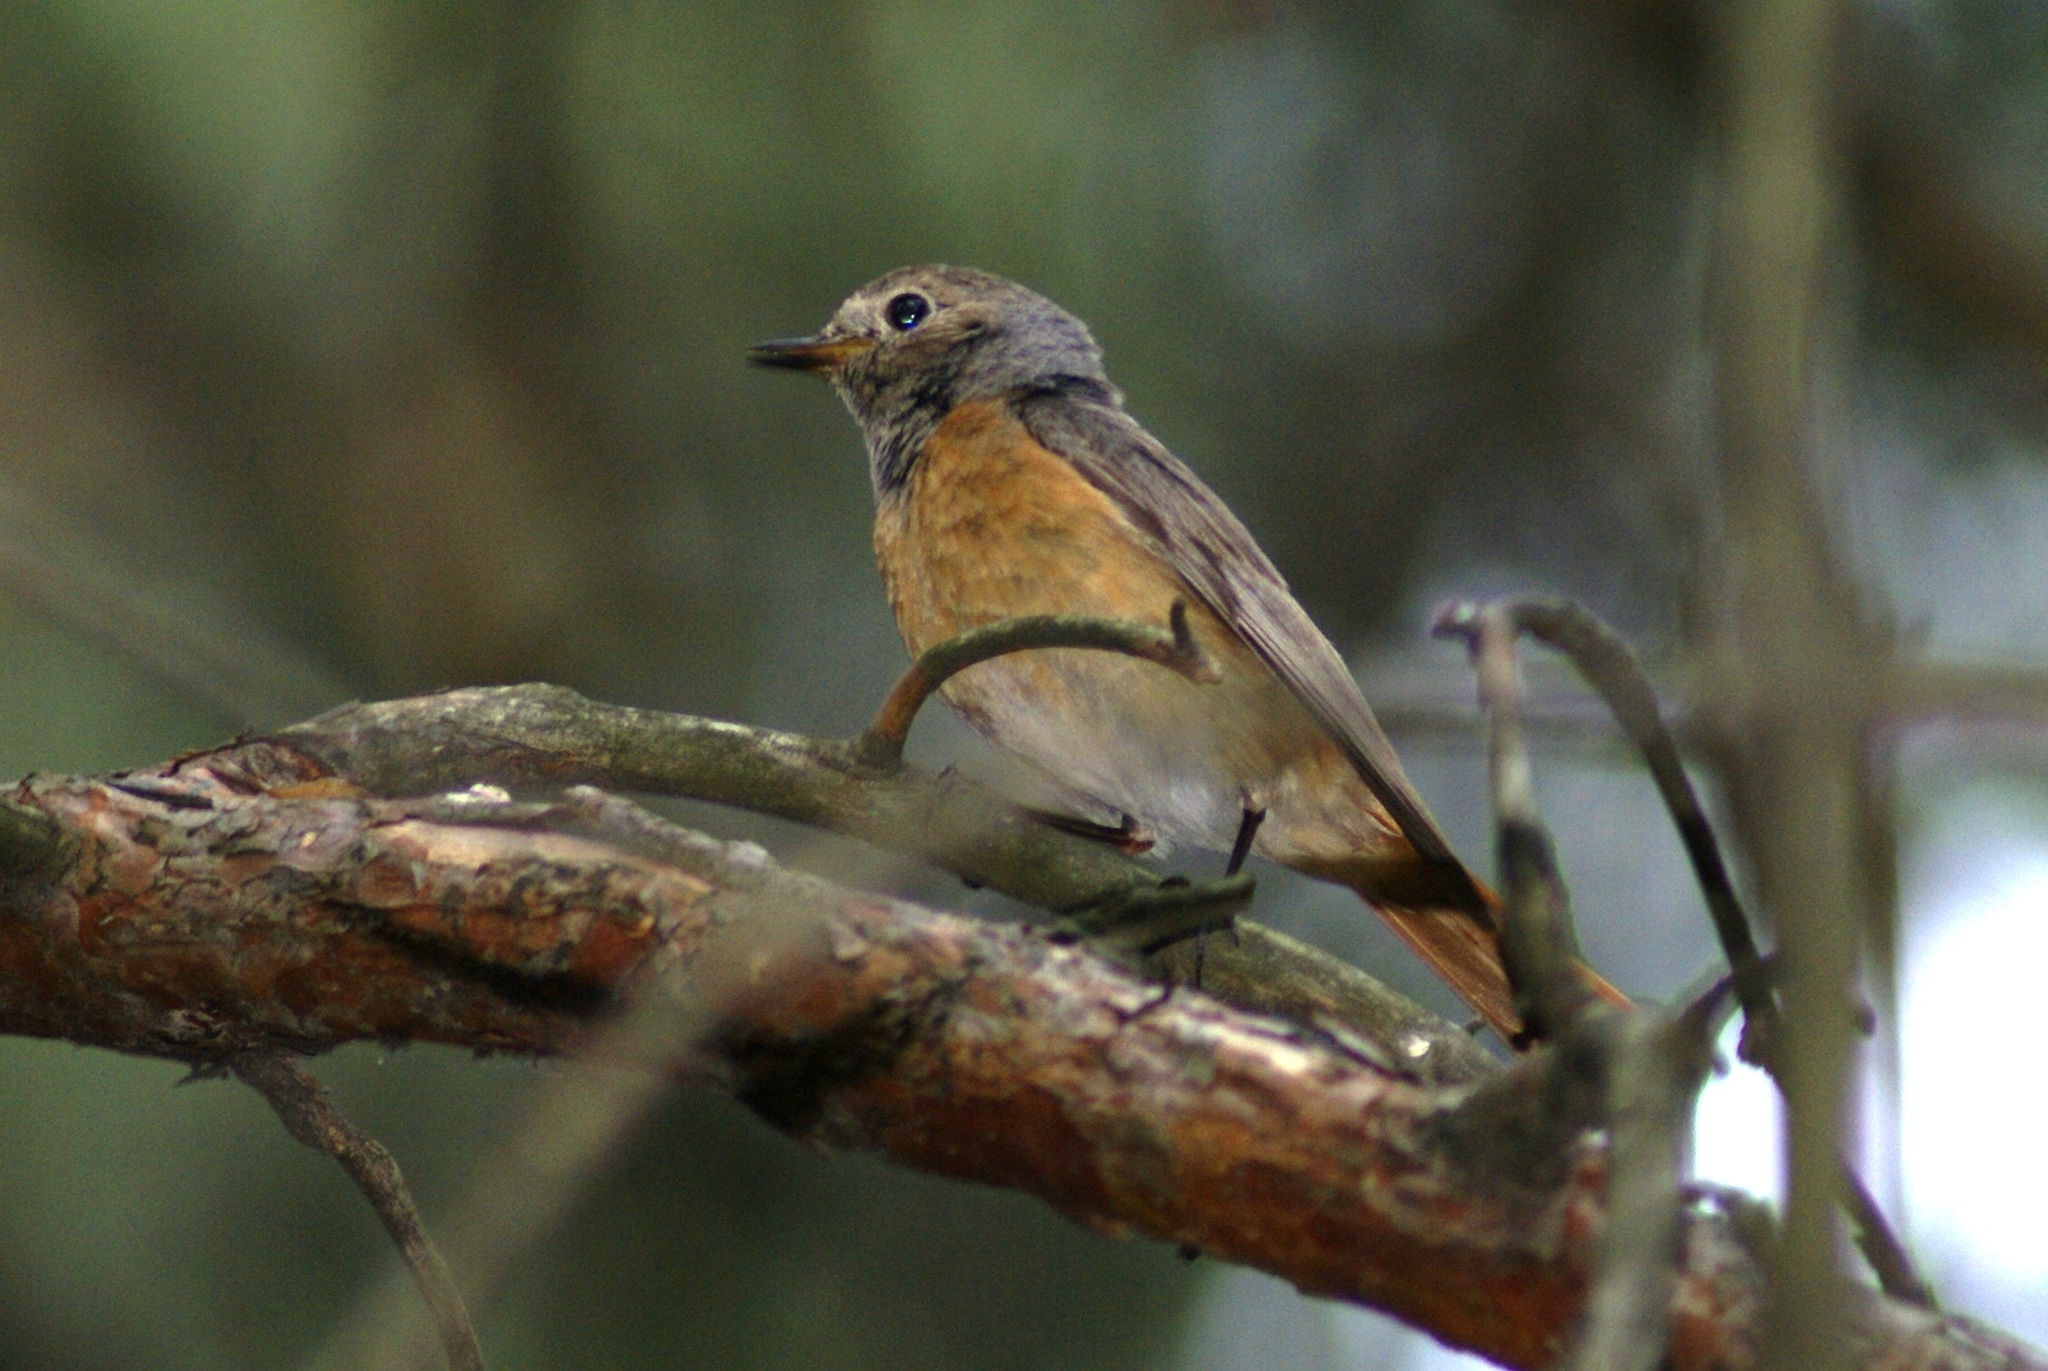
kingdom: Animalia
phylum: Chordata
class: Aves
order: Passeriformes
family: Muscicapidae
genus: Phoenicurus
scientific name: Phoenicurus phoenicurus
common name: Common redstart
